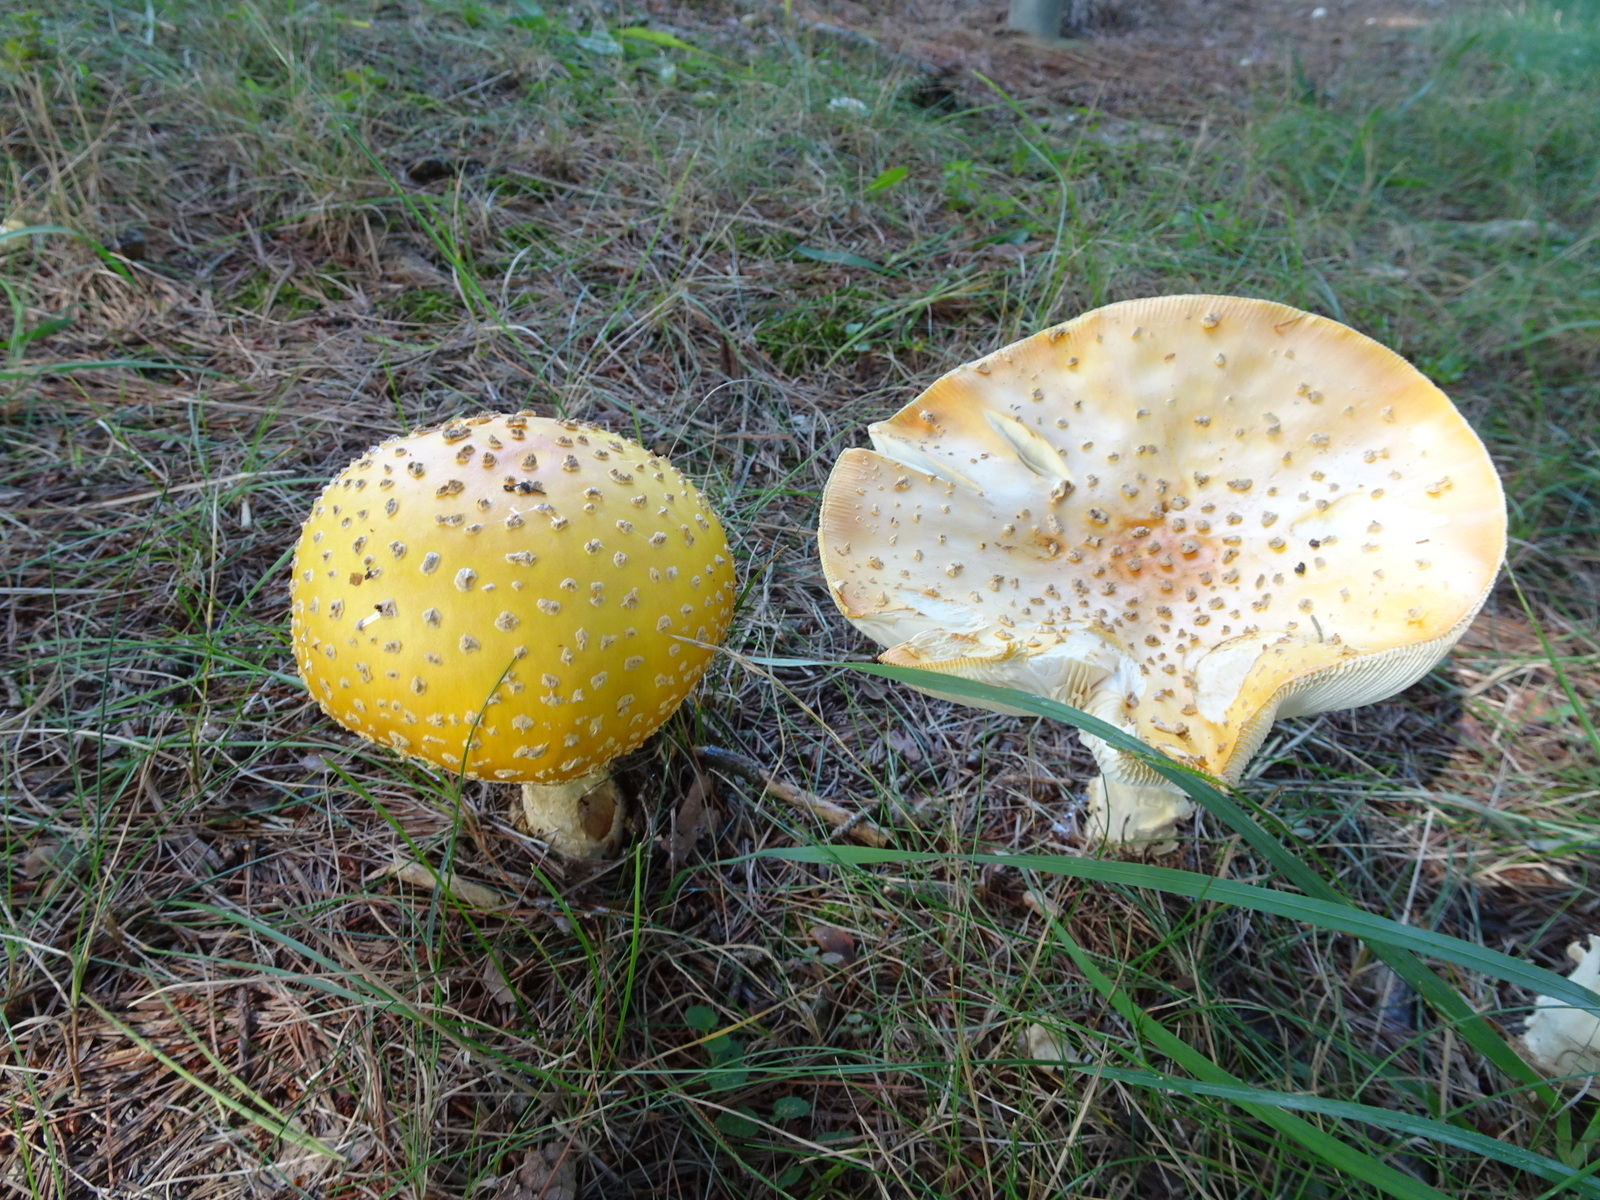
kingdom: Fungi
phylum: Basidiomycota
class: Agaricomycetes
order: Agaricales
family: Amanitaceae
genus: Amanita
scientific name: Amanita muscaria
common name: Fly agaric
